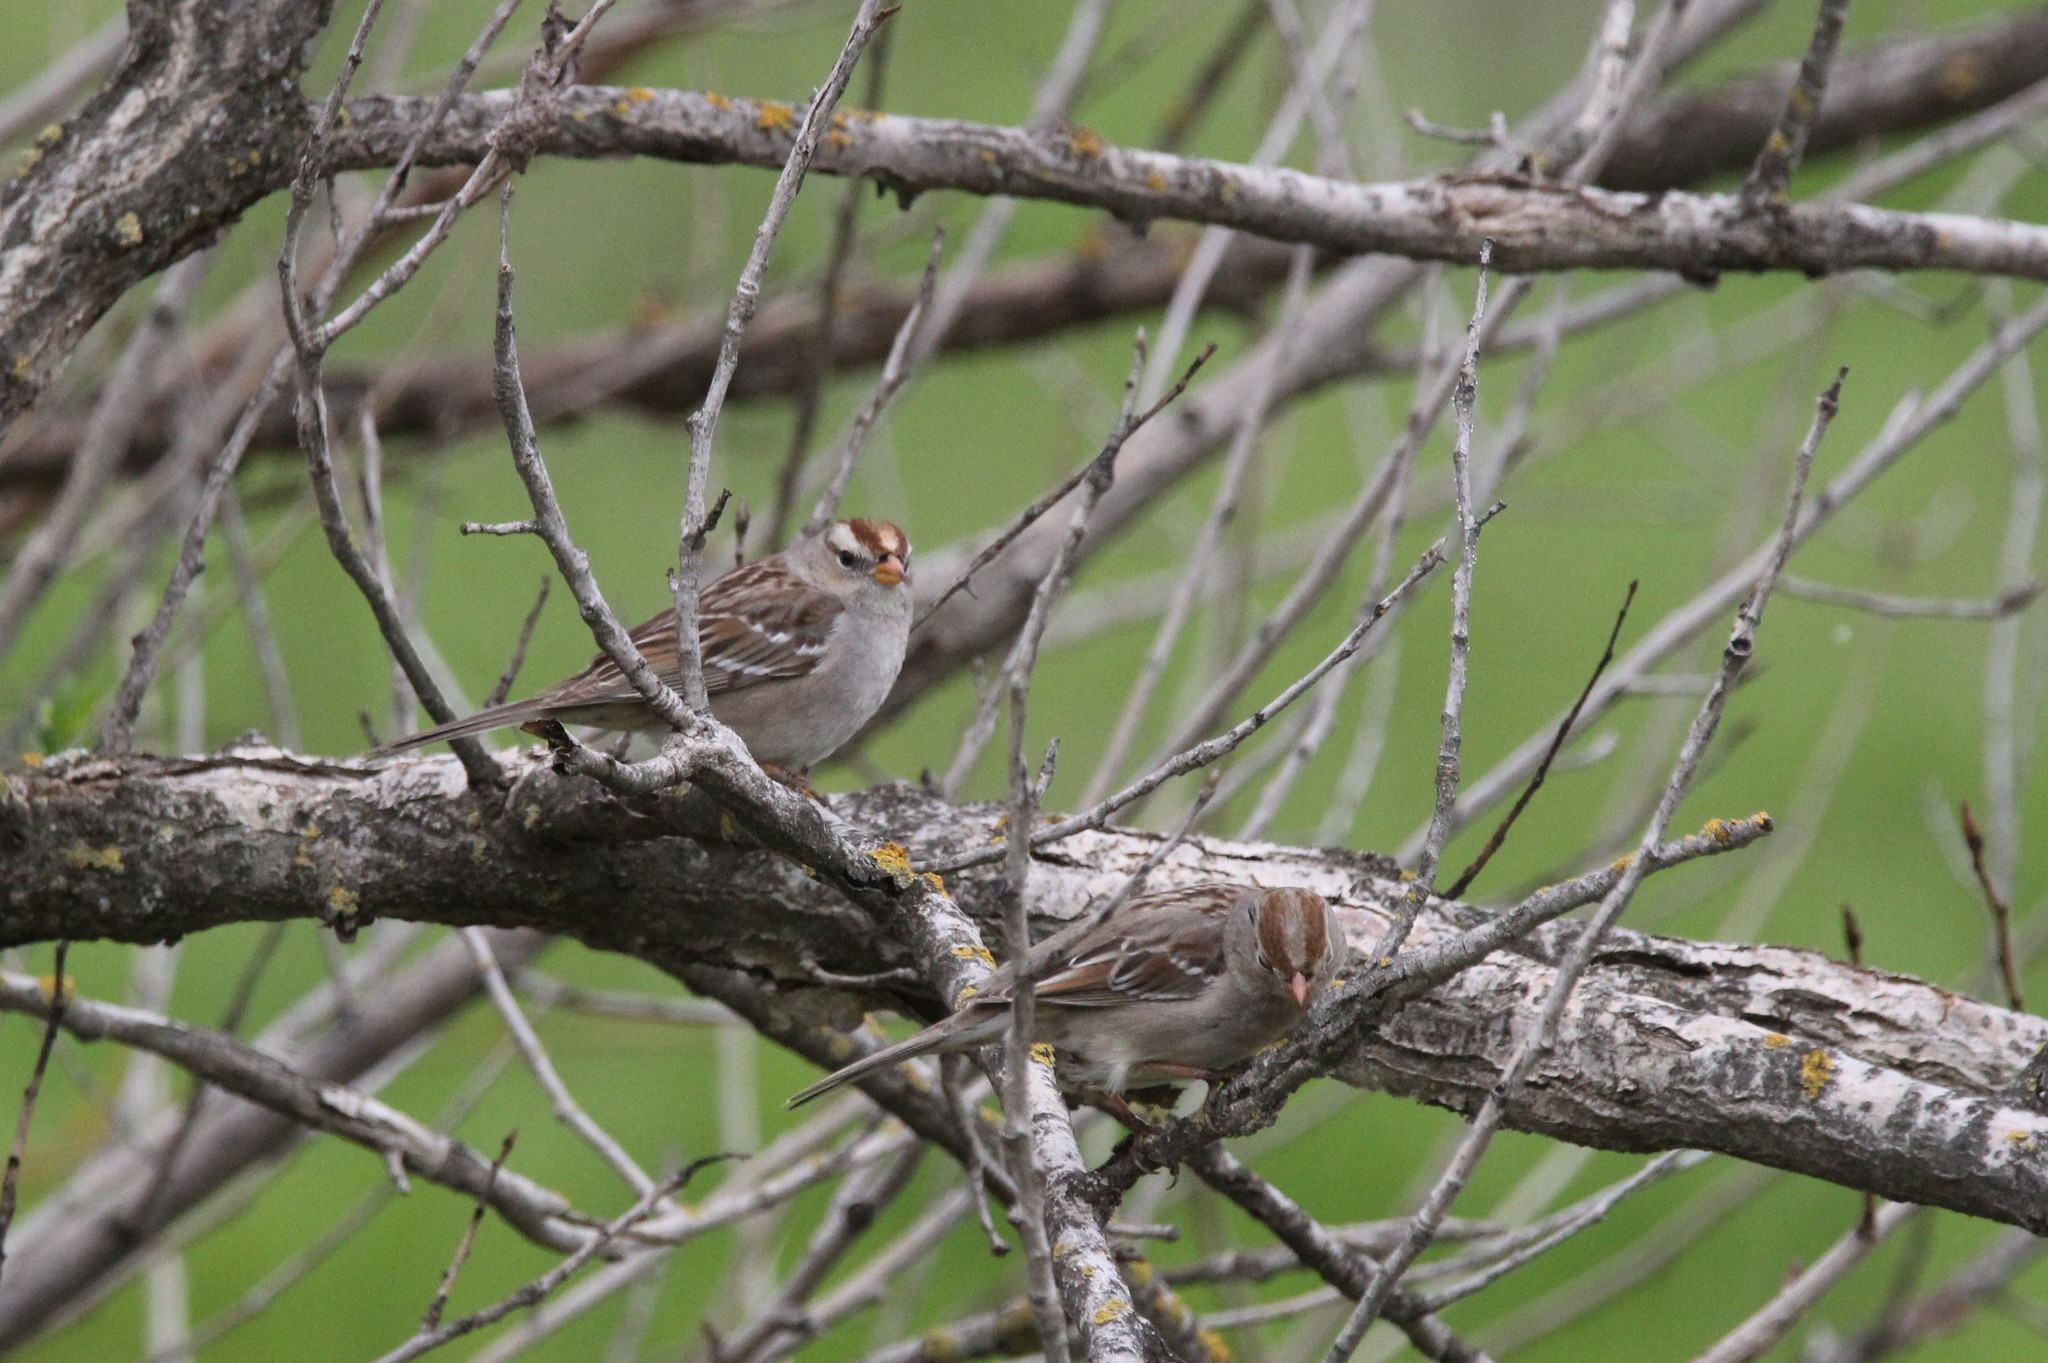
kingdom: Animalia
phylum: Chordata
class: Aves
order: Passeriformes
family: Passerellidae
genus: Zonotrichia
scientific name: Zonotrichia leucophrys
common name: White-crowned sparrow
